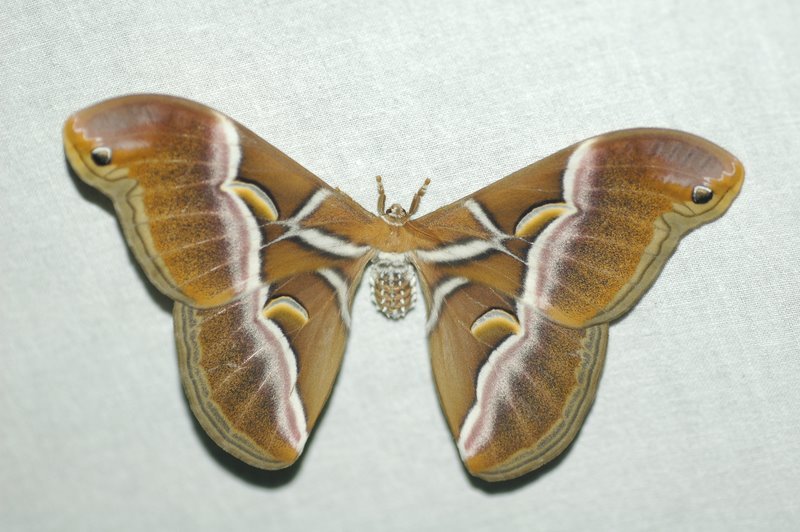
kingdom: Animalia
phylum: Arthropoda
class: Insecta
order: Lepidoptera
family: Saturniidae
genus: Samia
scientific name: Samia canningi
